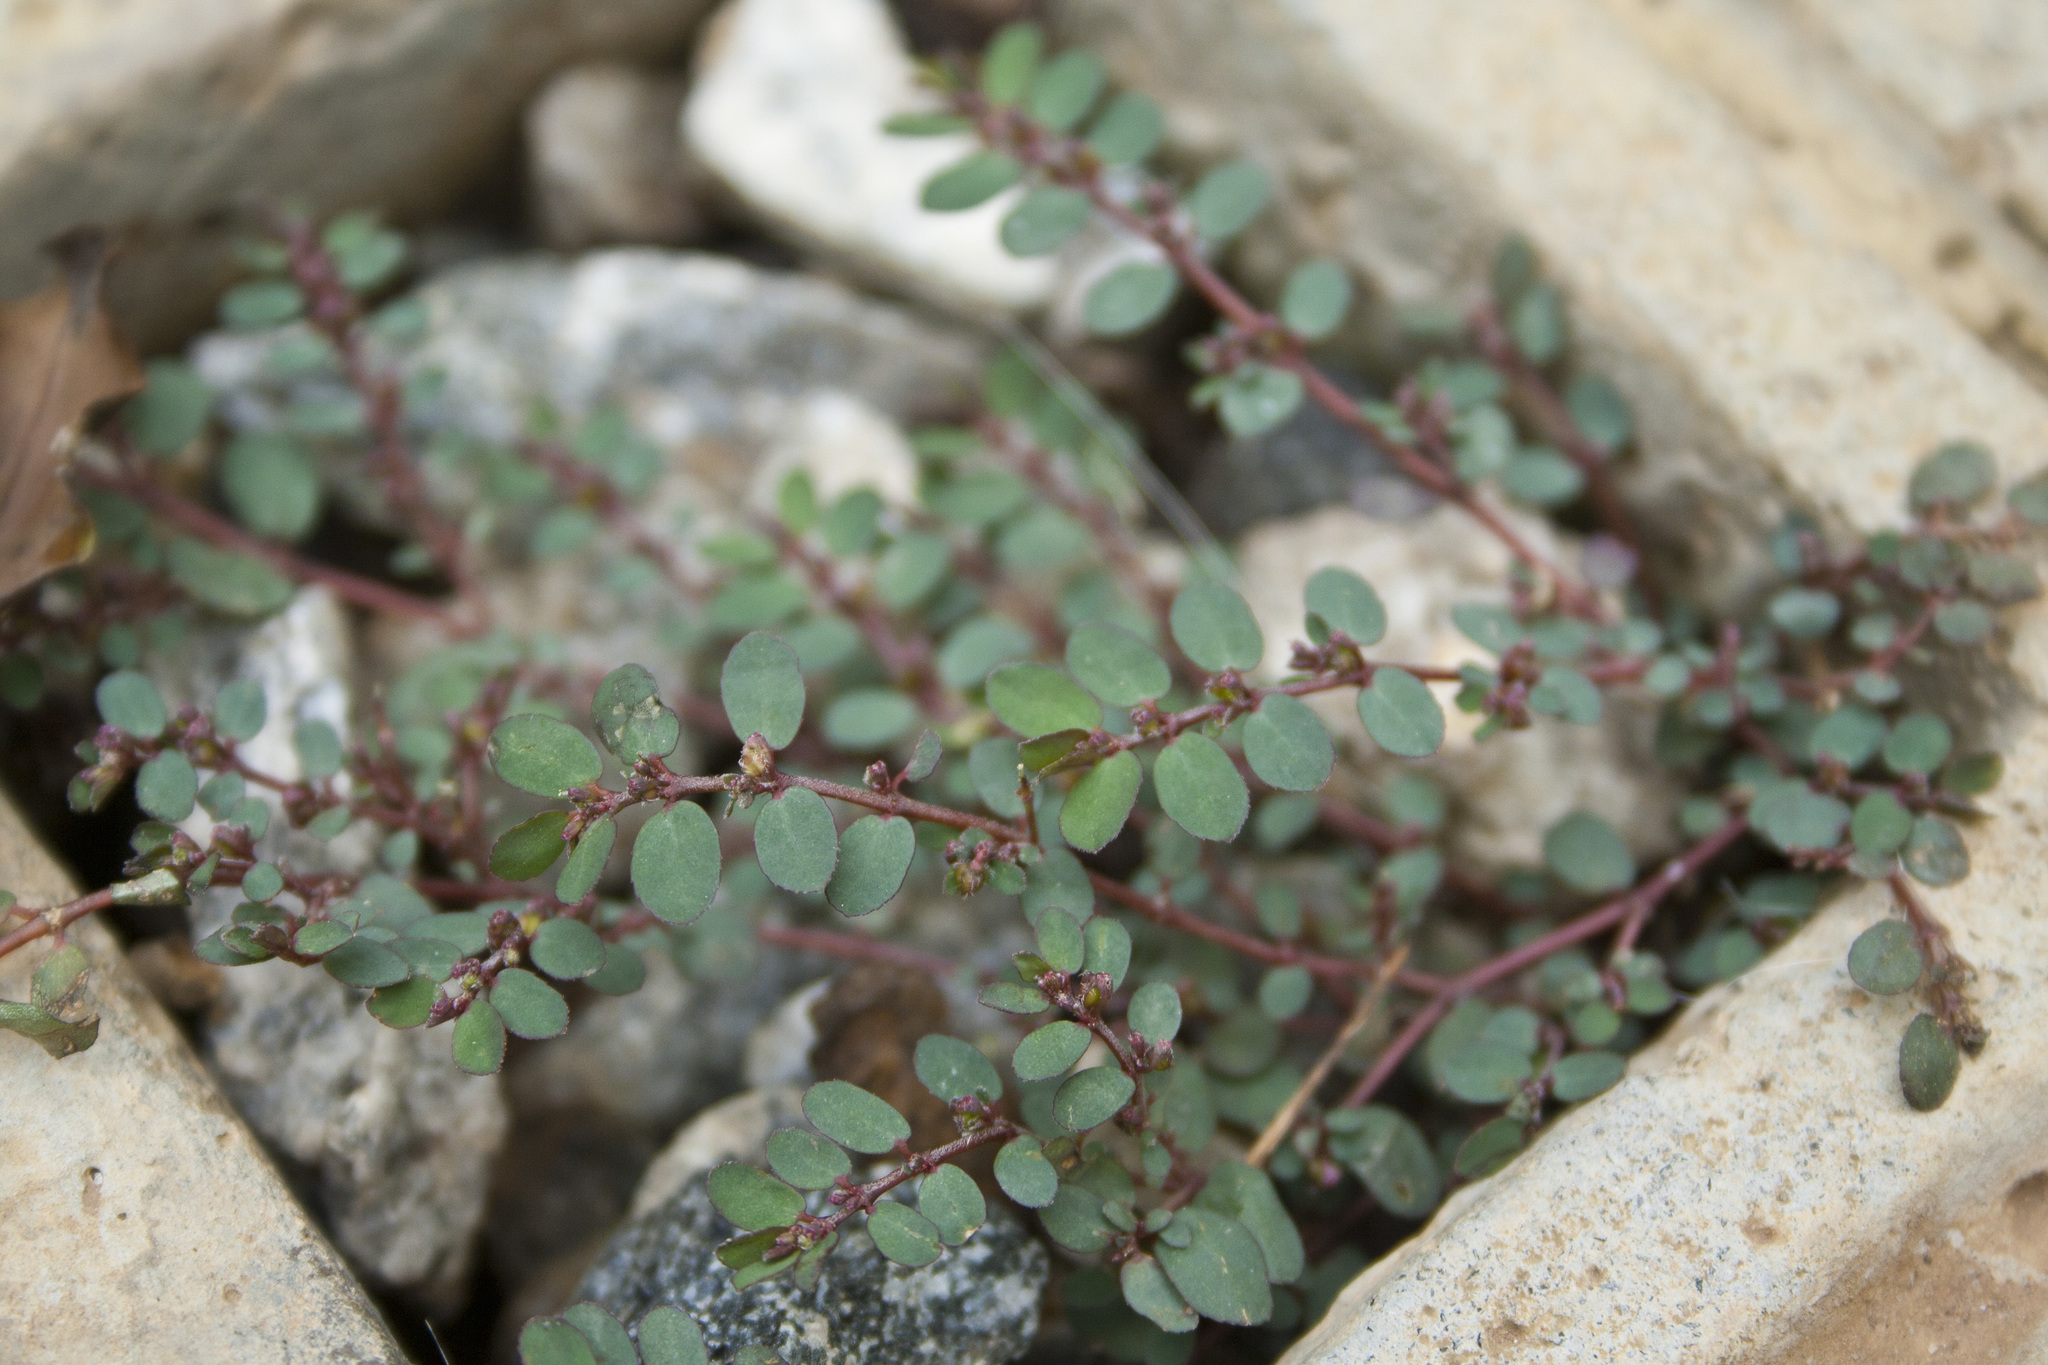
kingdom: Plantae
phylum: Tracheophyta
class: Magnoliopsida
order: Malpighiales
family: Euphorbiaceae
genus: Euphorbia
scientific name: Euphorbia prostrata
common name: Prostrate sandmat
